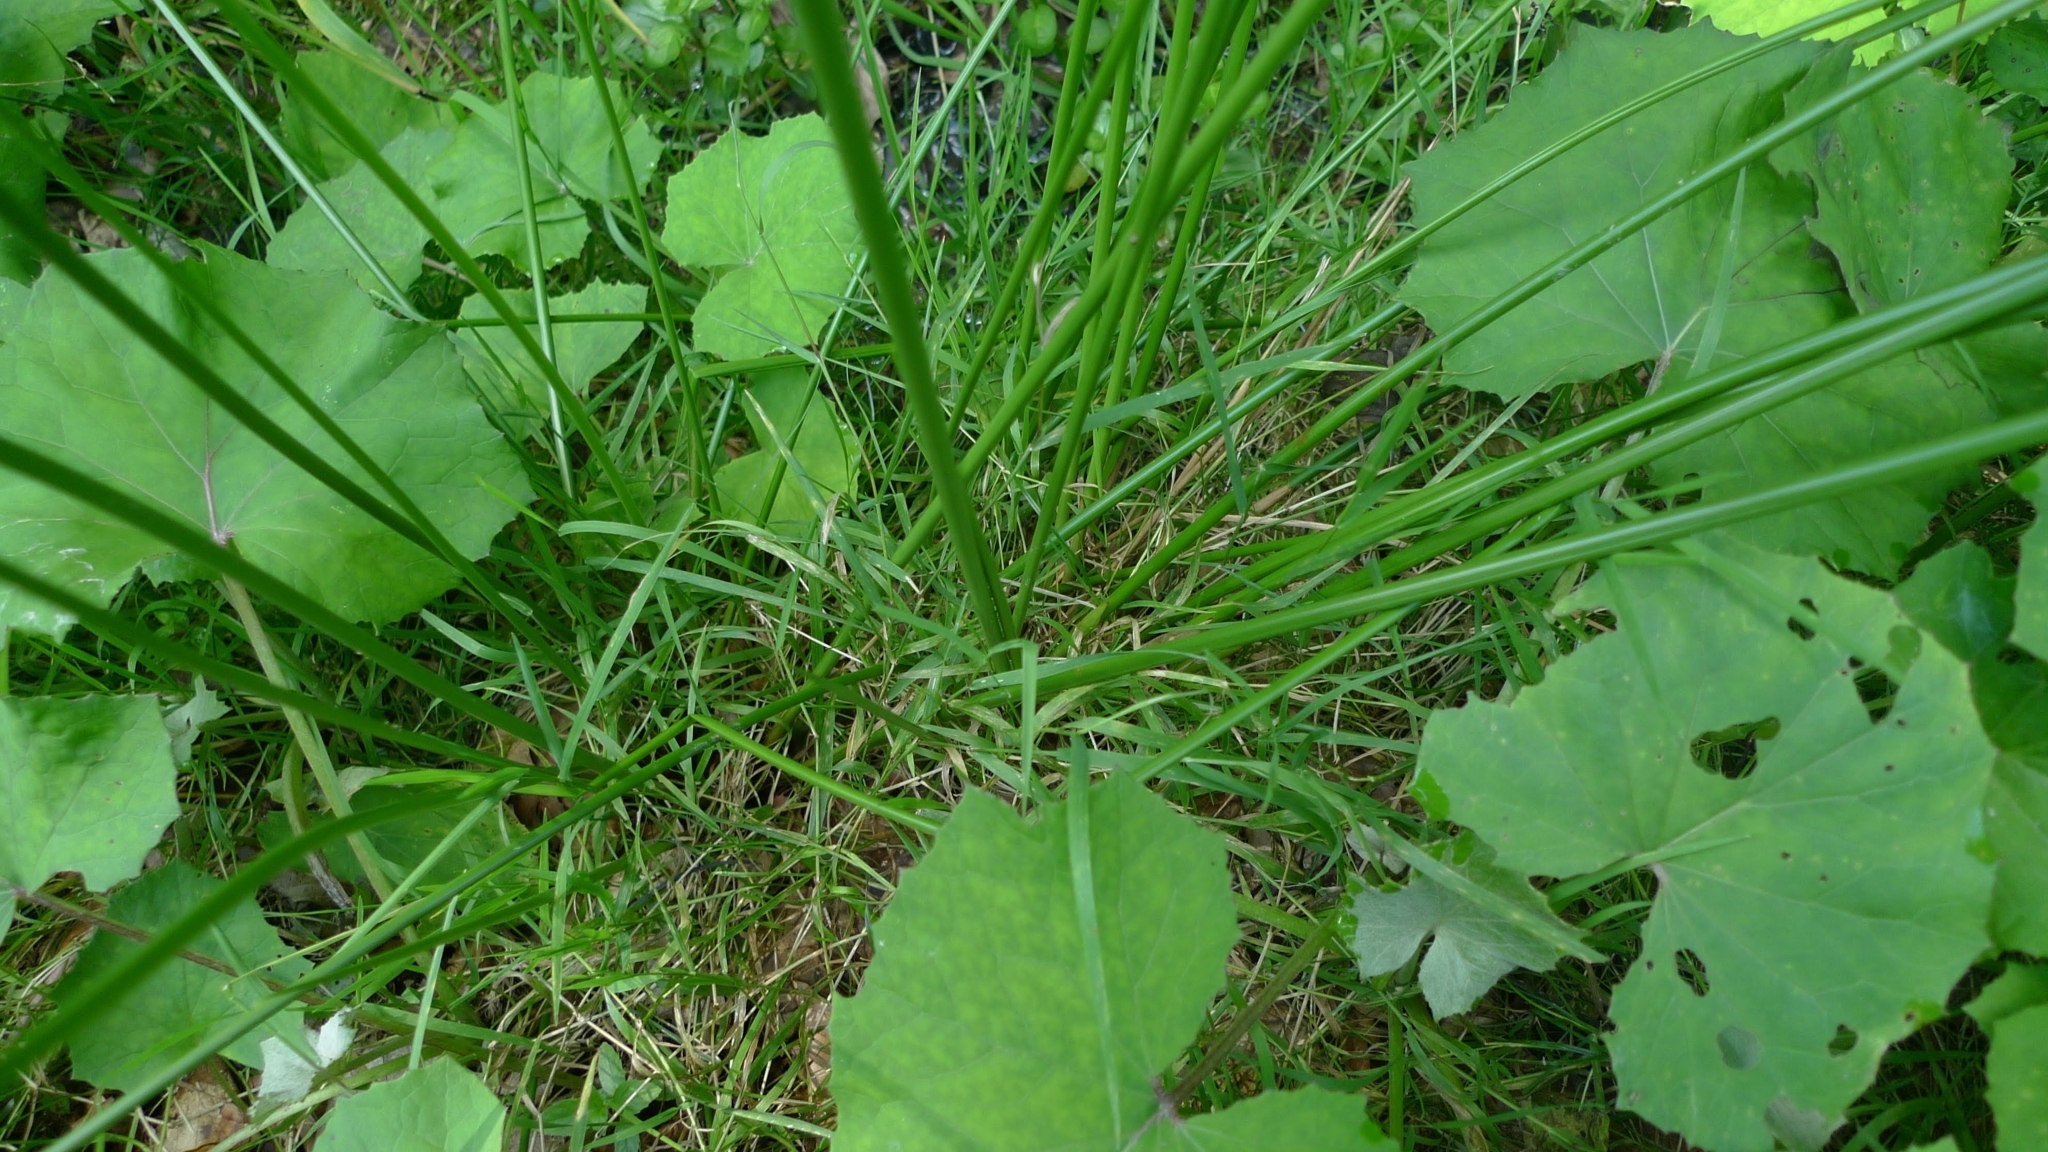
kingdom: Plantae
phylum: Tracheophyta
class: Liliopsida
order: Poales
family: Juncaceae
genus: Juncus
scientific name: Juncus effusus
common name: Soft rush
